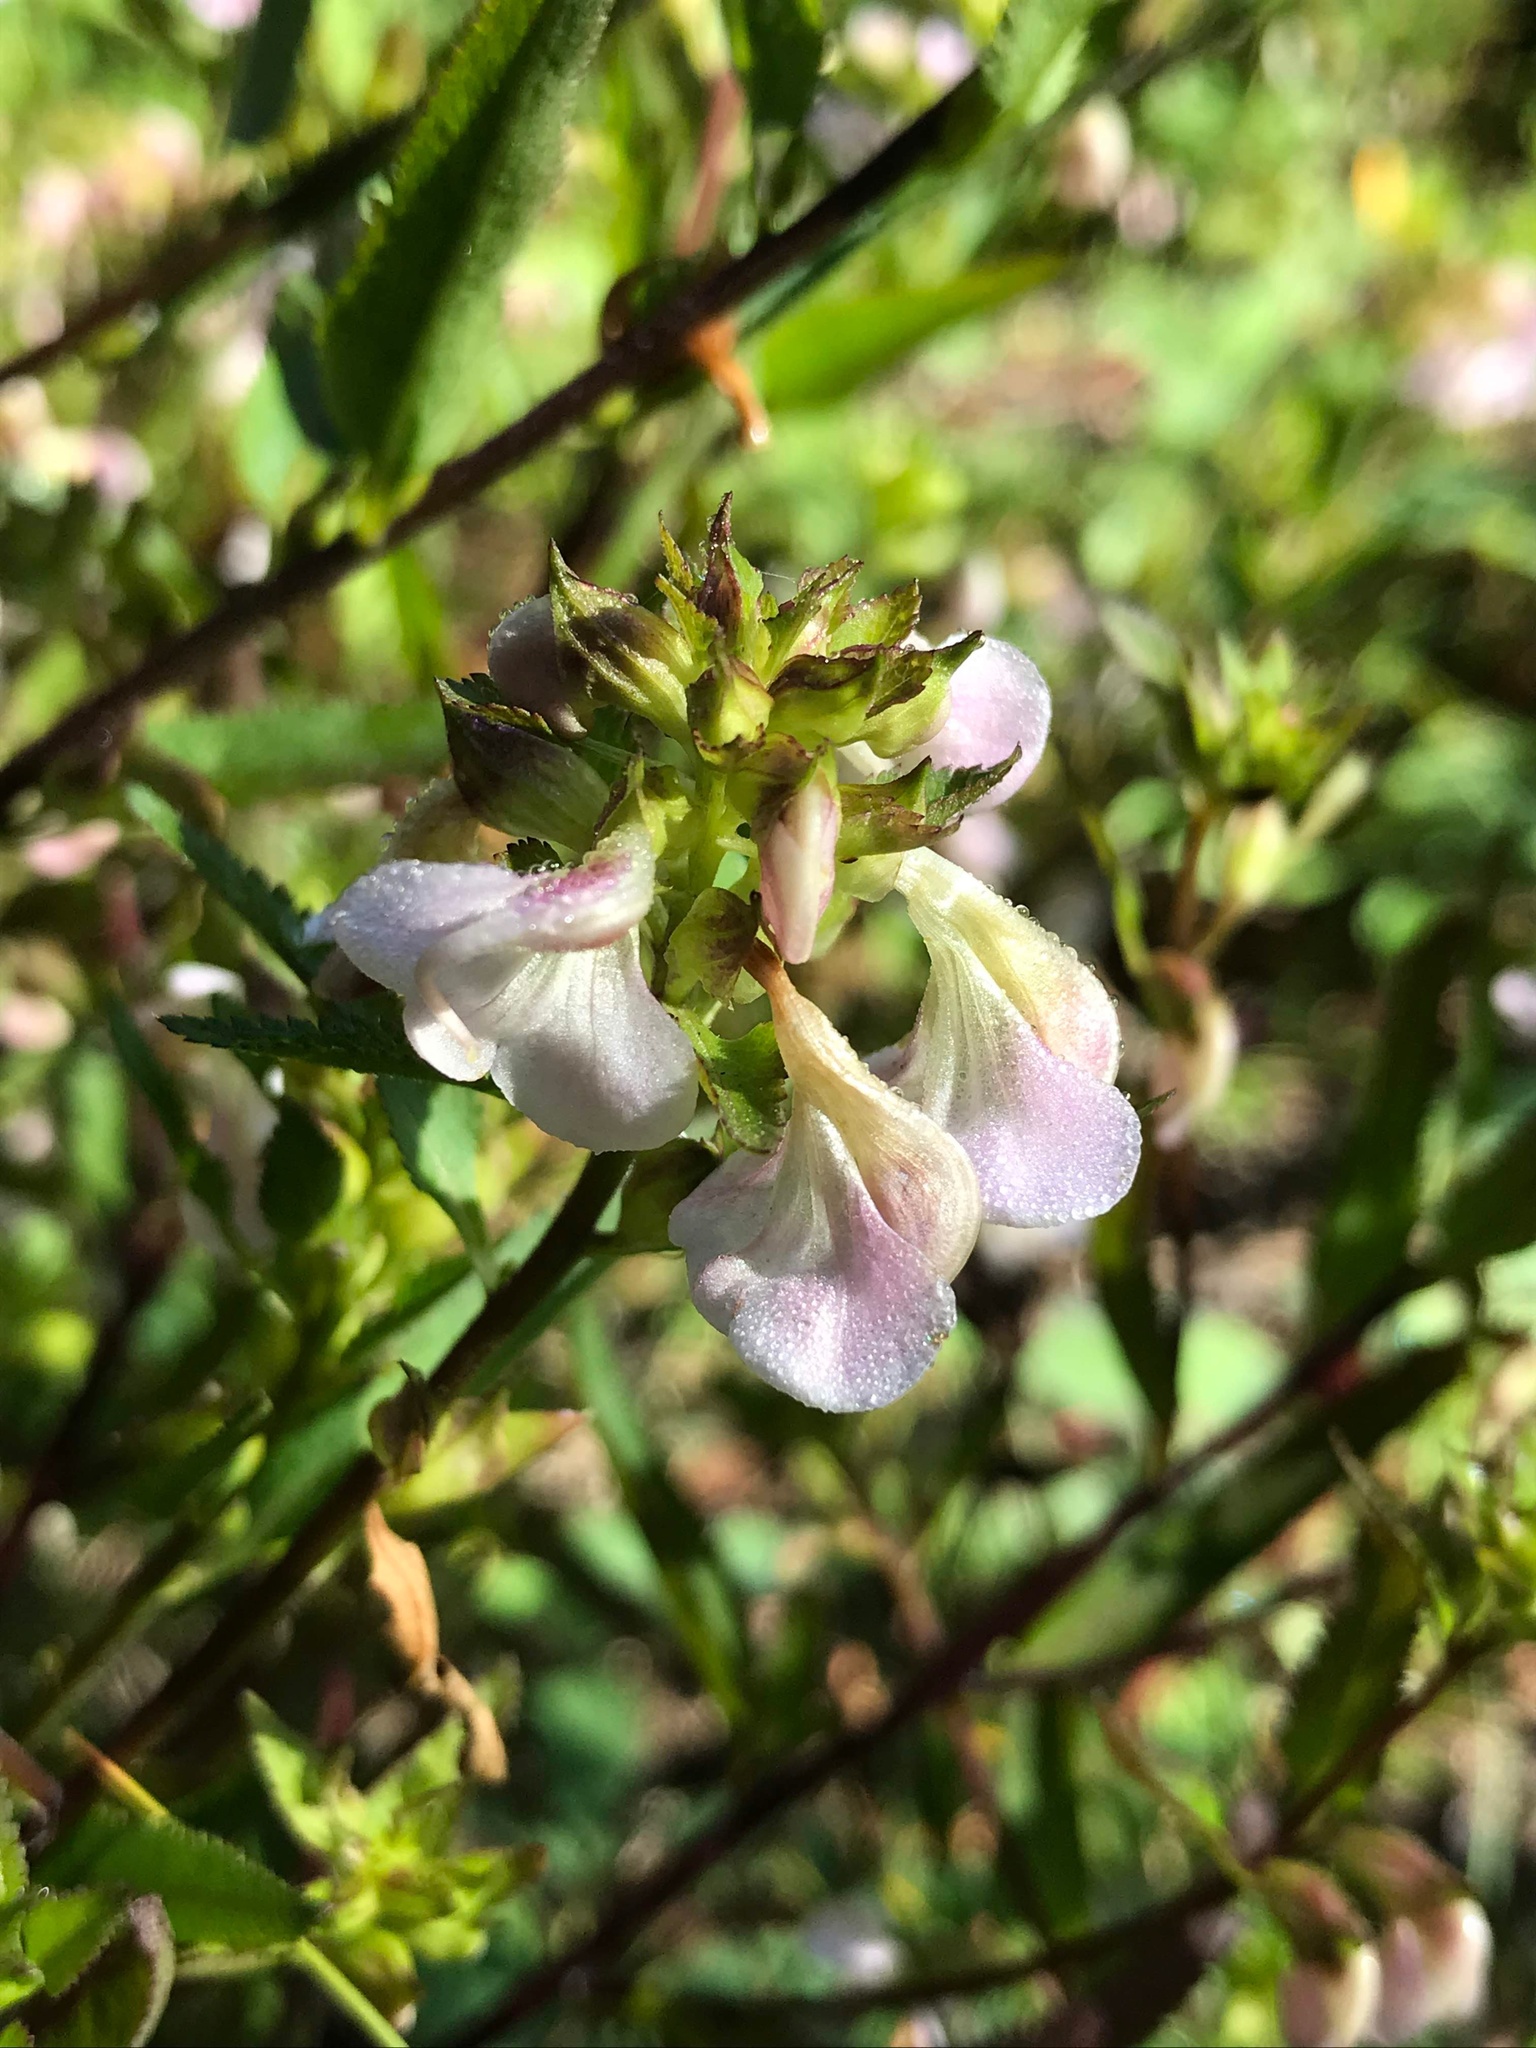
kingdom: Plantae
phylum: Tracheophyta
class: Magnoliopsida
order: Lamiales
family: Orobanchaceae
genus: Pedicularis
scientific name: Pedicularis racemosa
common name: Leafy lousewort
